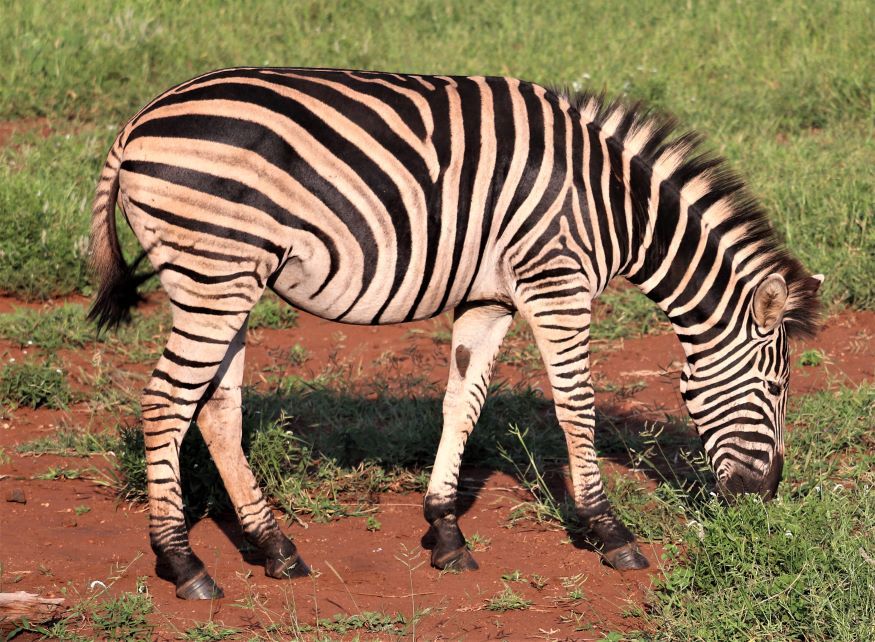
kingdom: Animalia
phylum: Chordata
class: Mammalia
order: Perissodactyla
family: Equidae
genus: Equus
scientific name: Equus quagga
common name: Plains zebra
